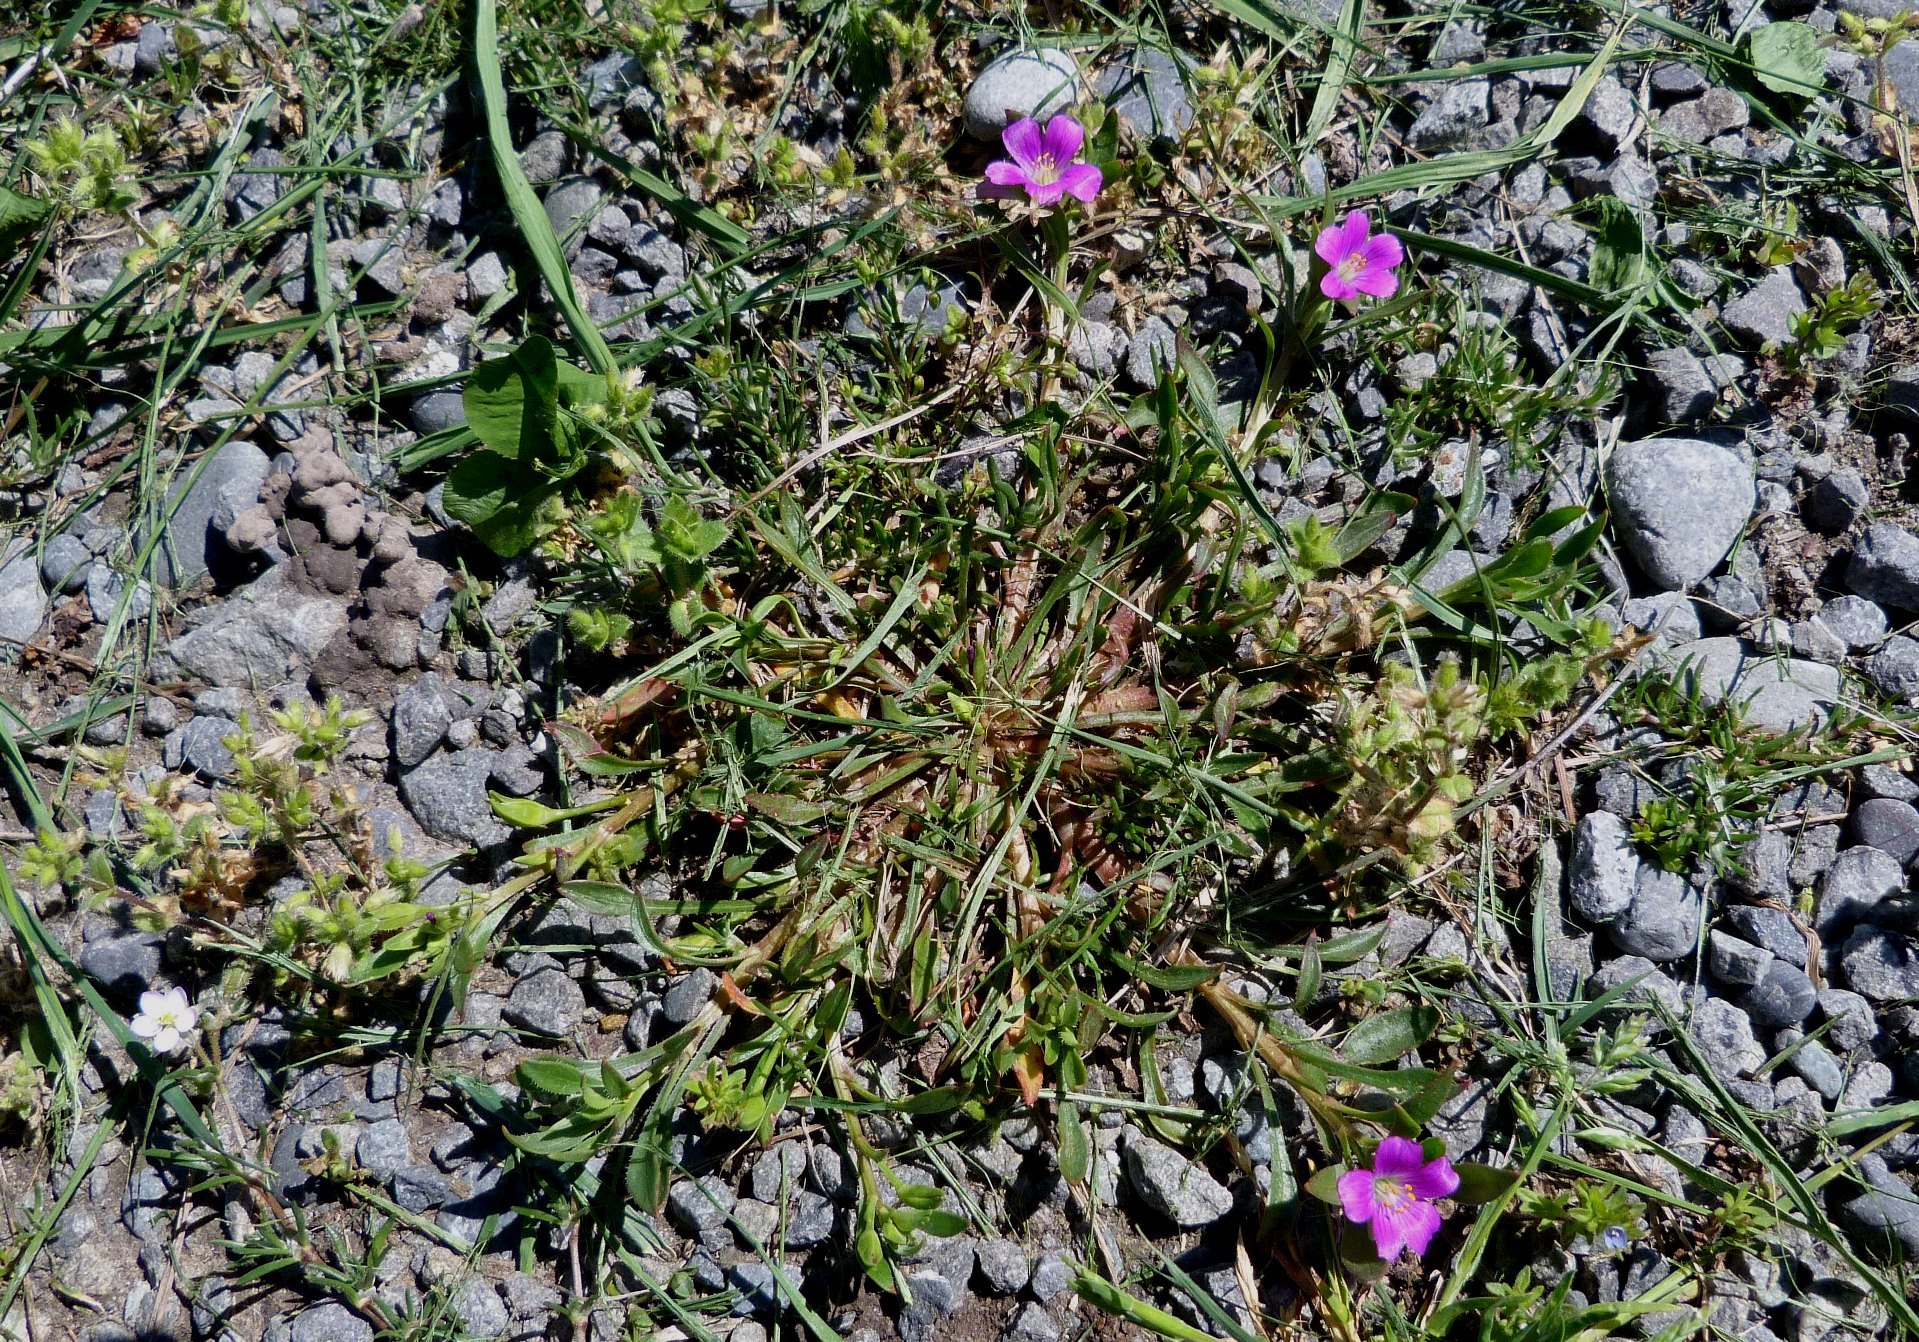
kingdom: Plantae
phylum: Tracheophyta
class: Magnoliopsida
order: Caryophyllales
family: Montiaceae
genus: Calandrinia
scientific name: Calandrinia menziesii
